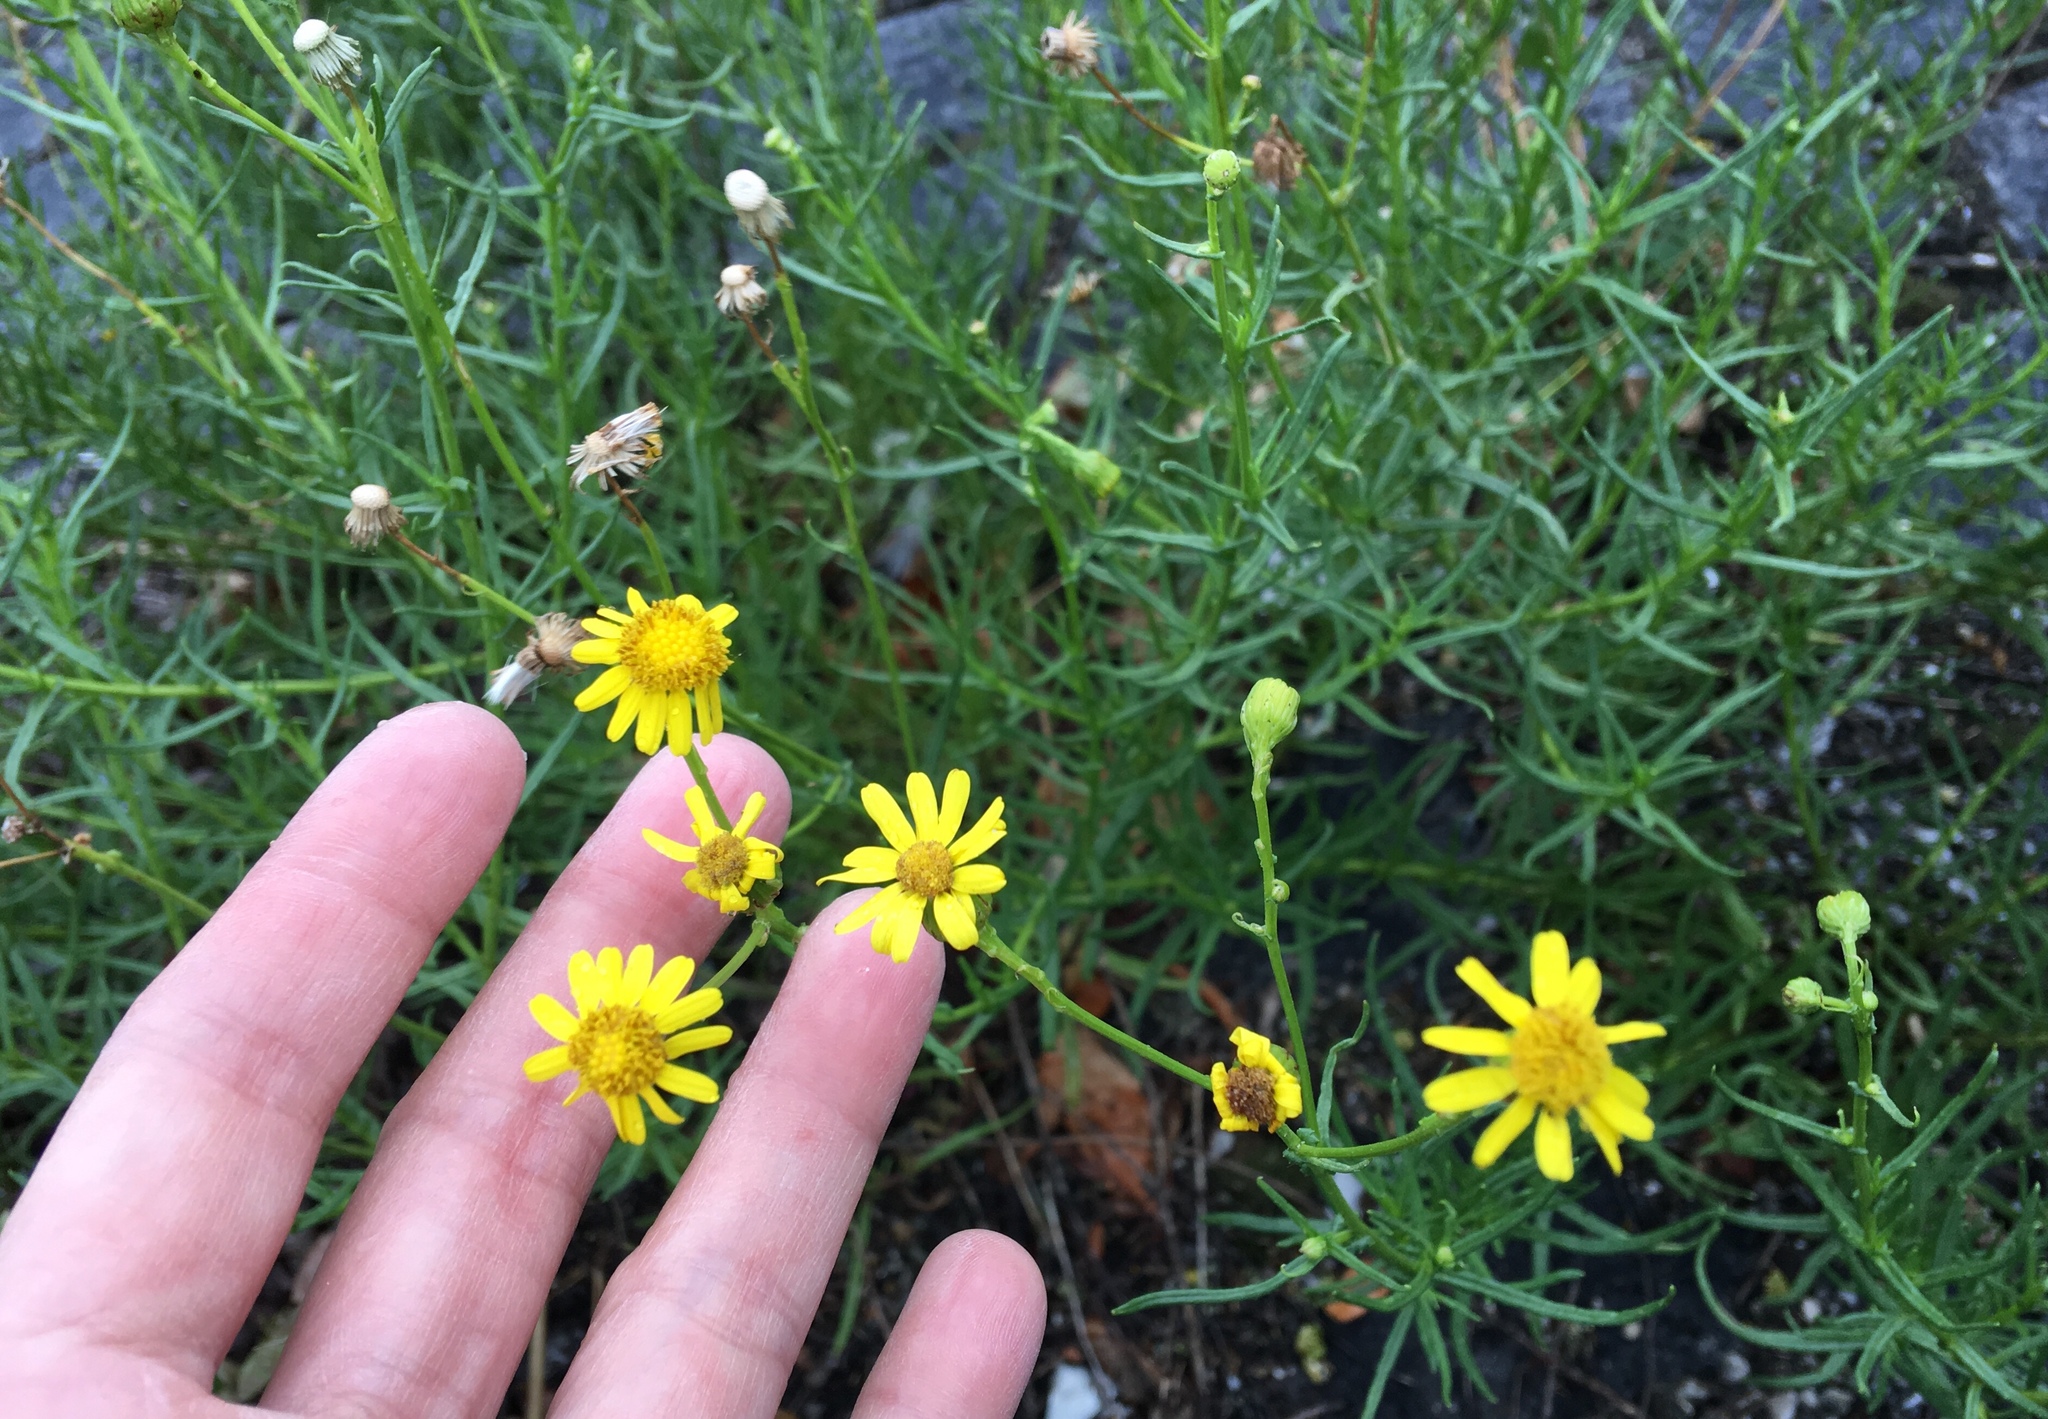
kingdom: Plantae
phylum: Tracheophyta
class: Magnoliopsida
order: Asterales
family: Asteraceae
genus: Senecio
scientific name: Senecio inaequidens
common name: Narrow-leaved ragwort
